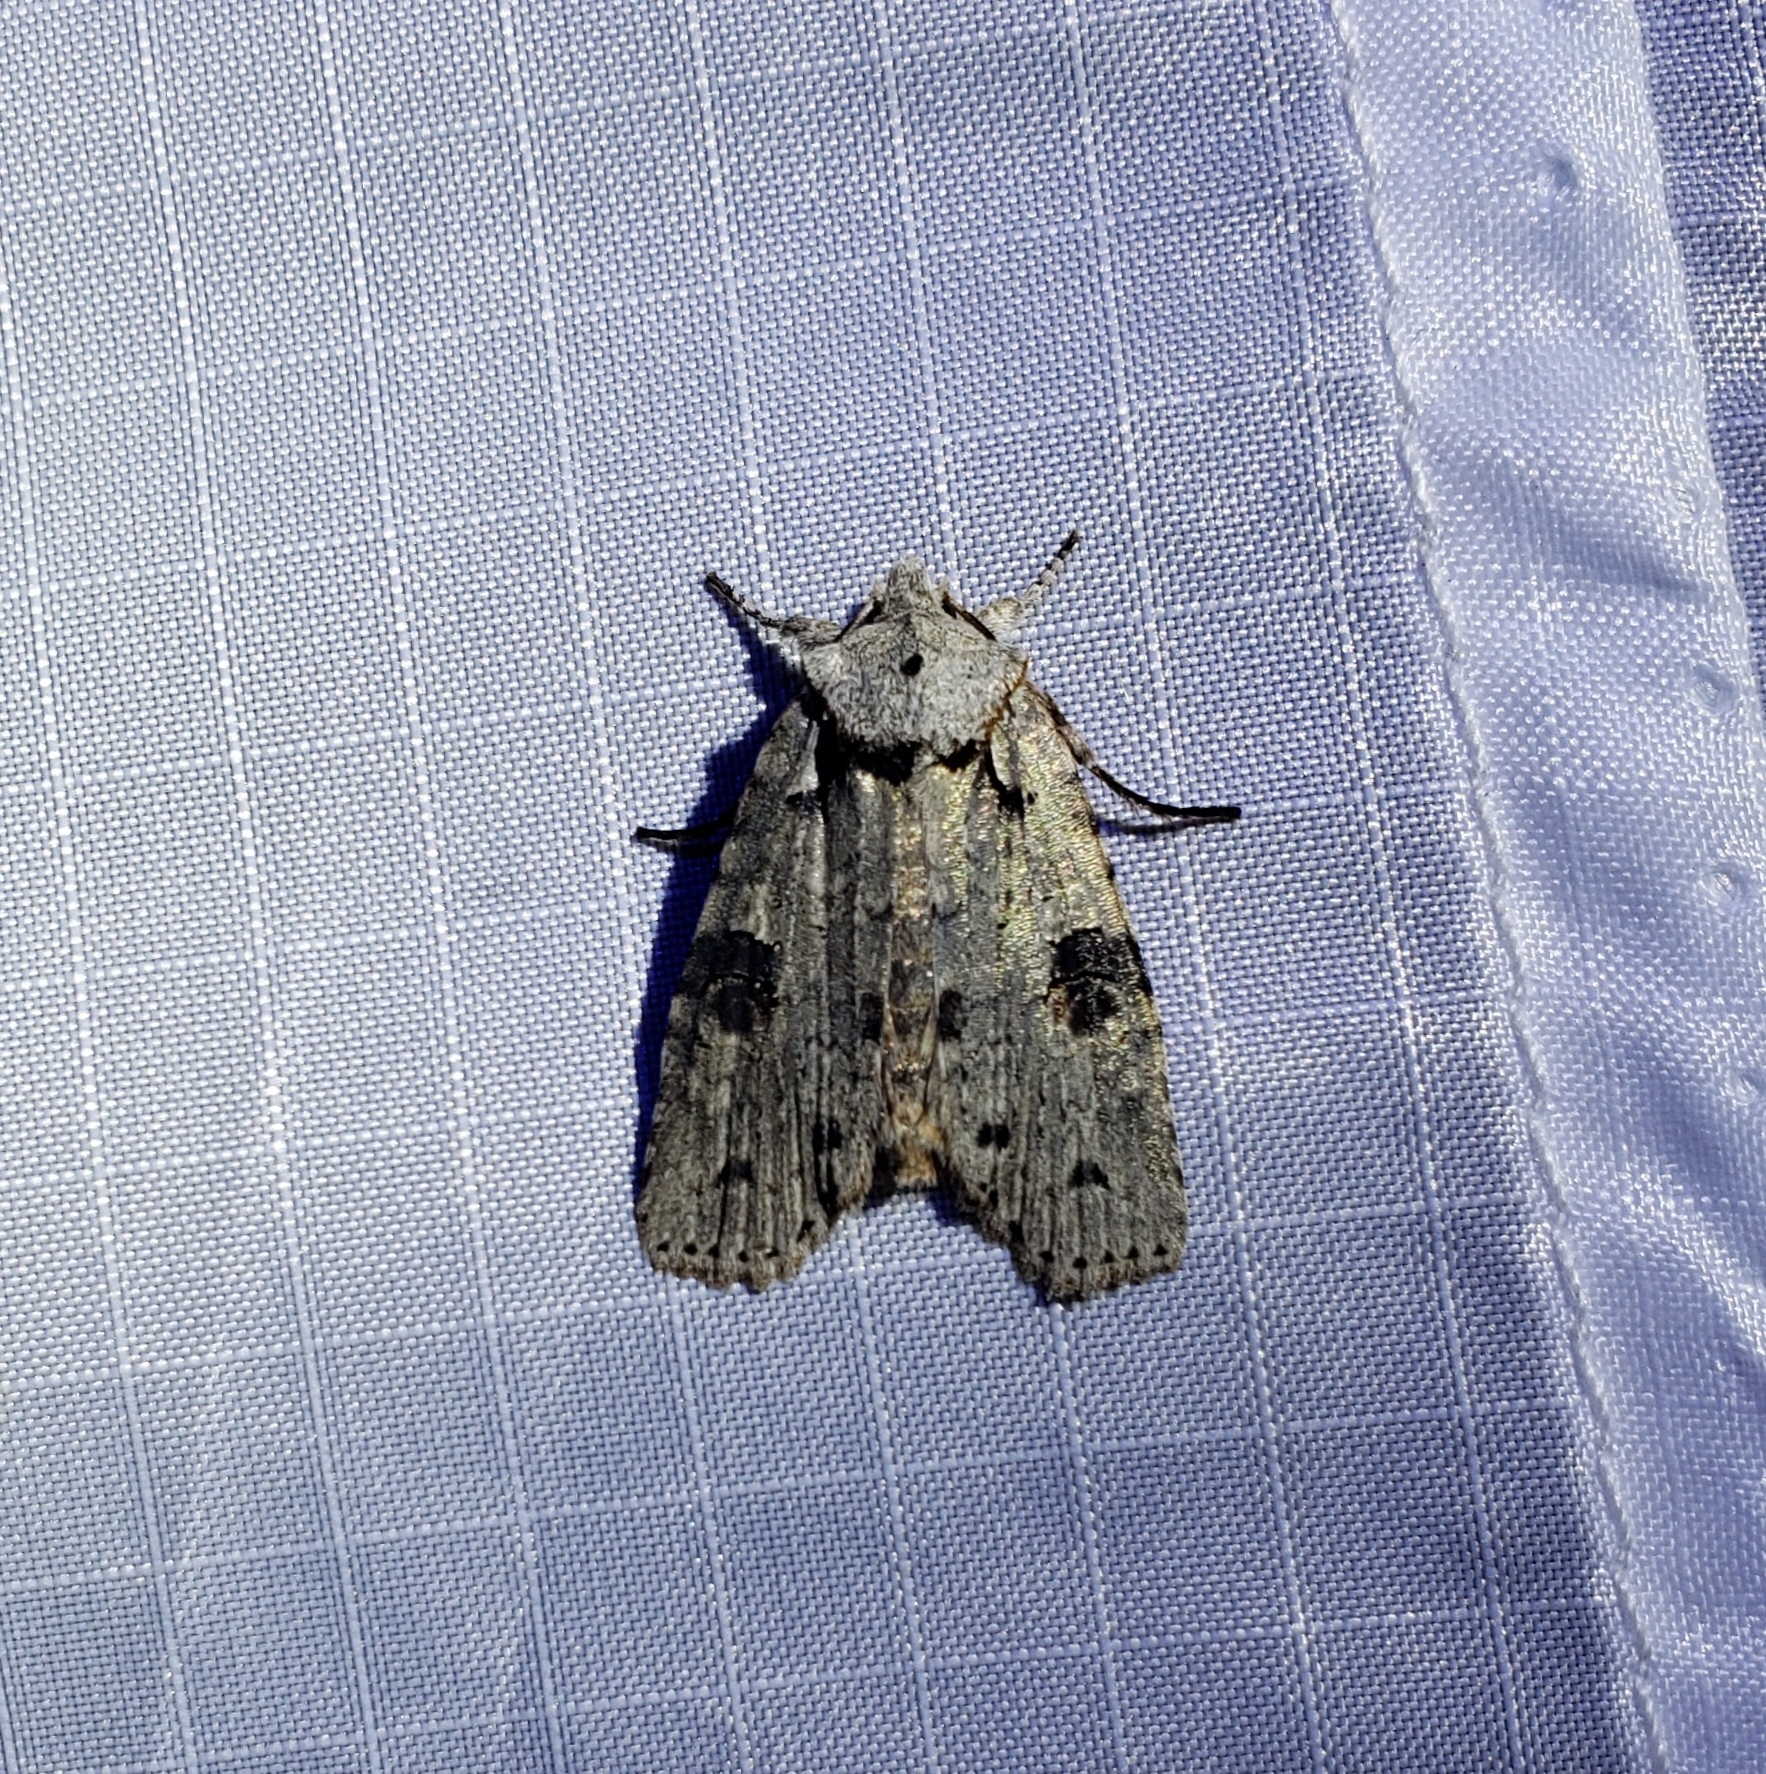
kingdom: Animalia
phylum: Arthropoda
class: Insecta
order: Lepidoptera
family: Noctuidae
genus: Lithophane
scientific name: Lithophane querquera
